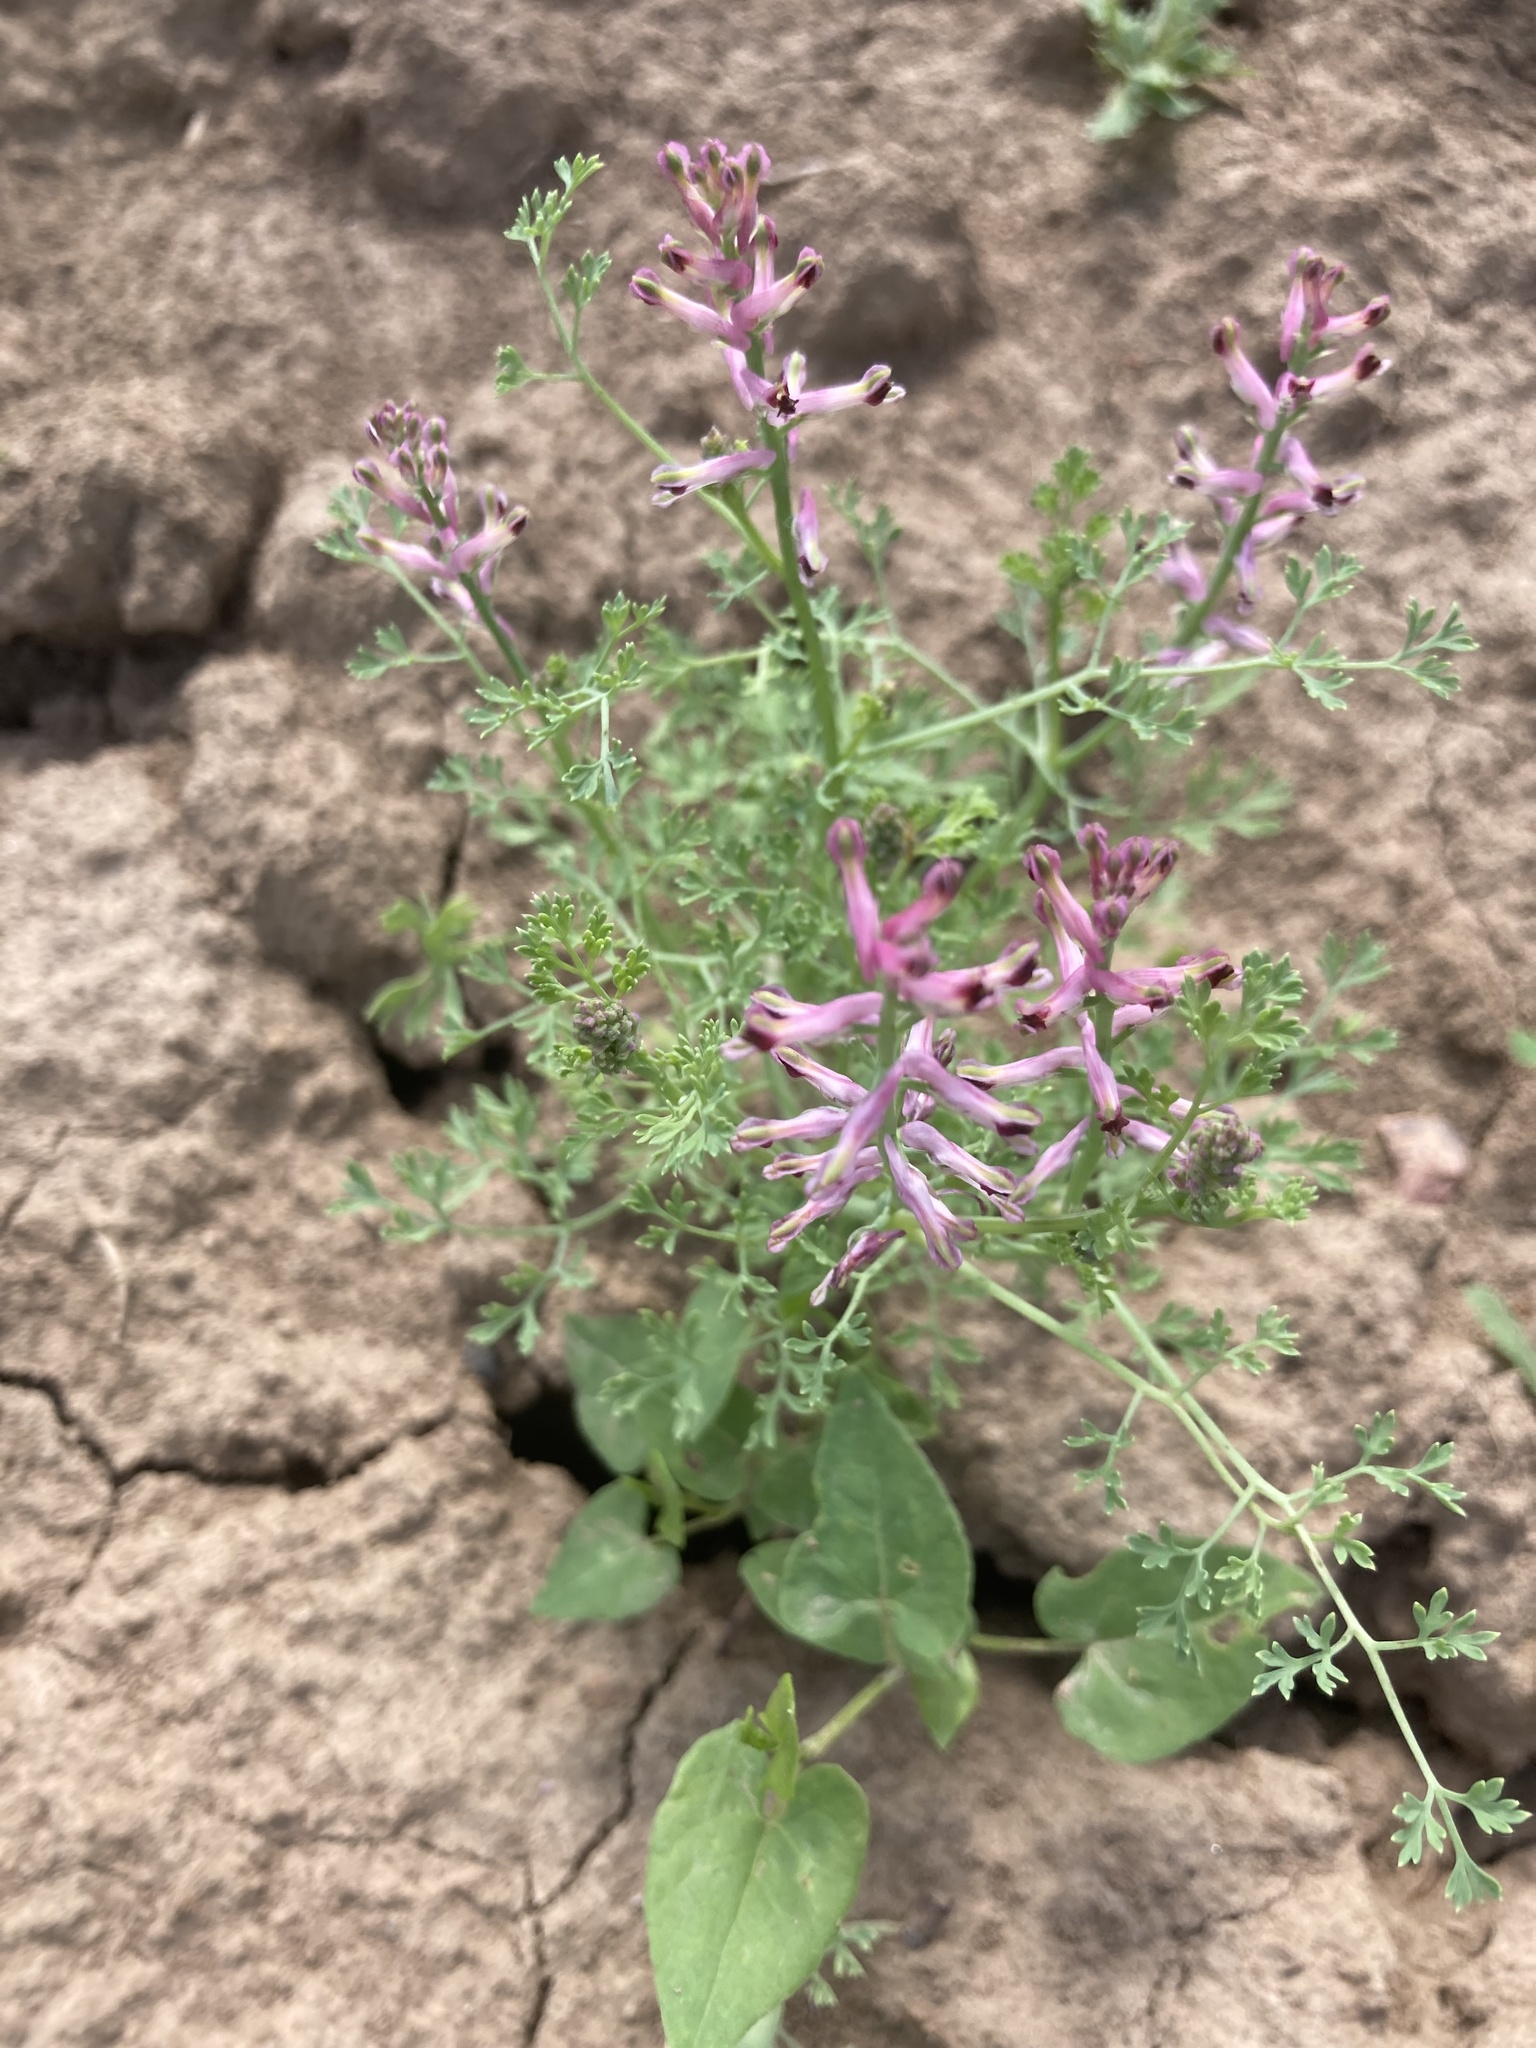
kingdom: Plantae
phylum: Tracheophyta
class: Magnoliopsida
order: Ranunculales
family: Papaveraceae
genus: Fumaria
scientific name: Fumaria officinalis
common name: Common fumitory
